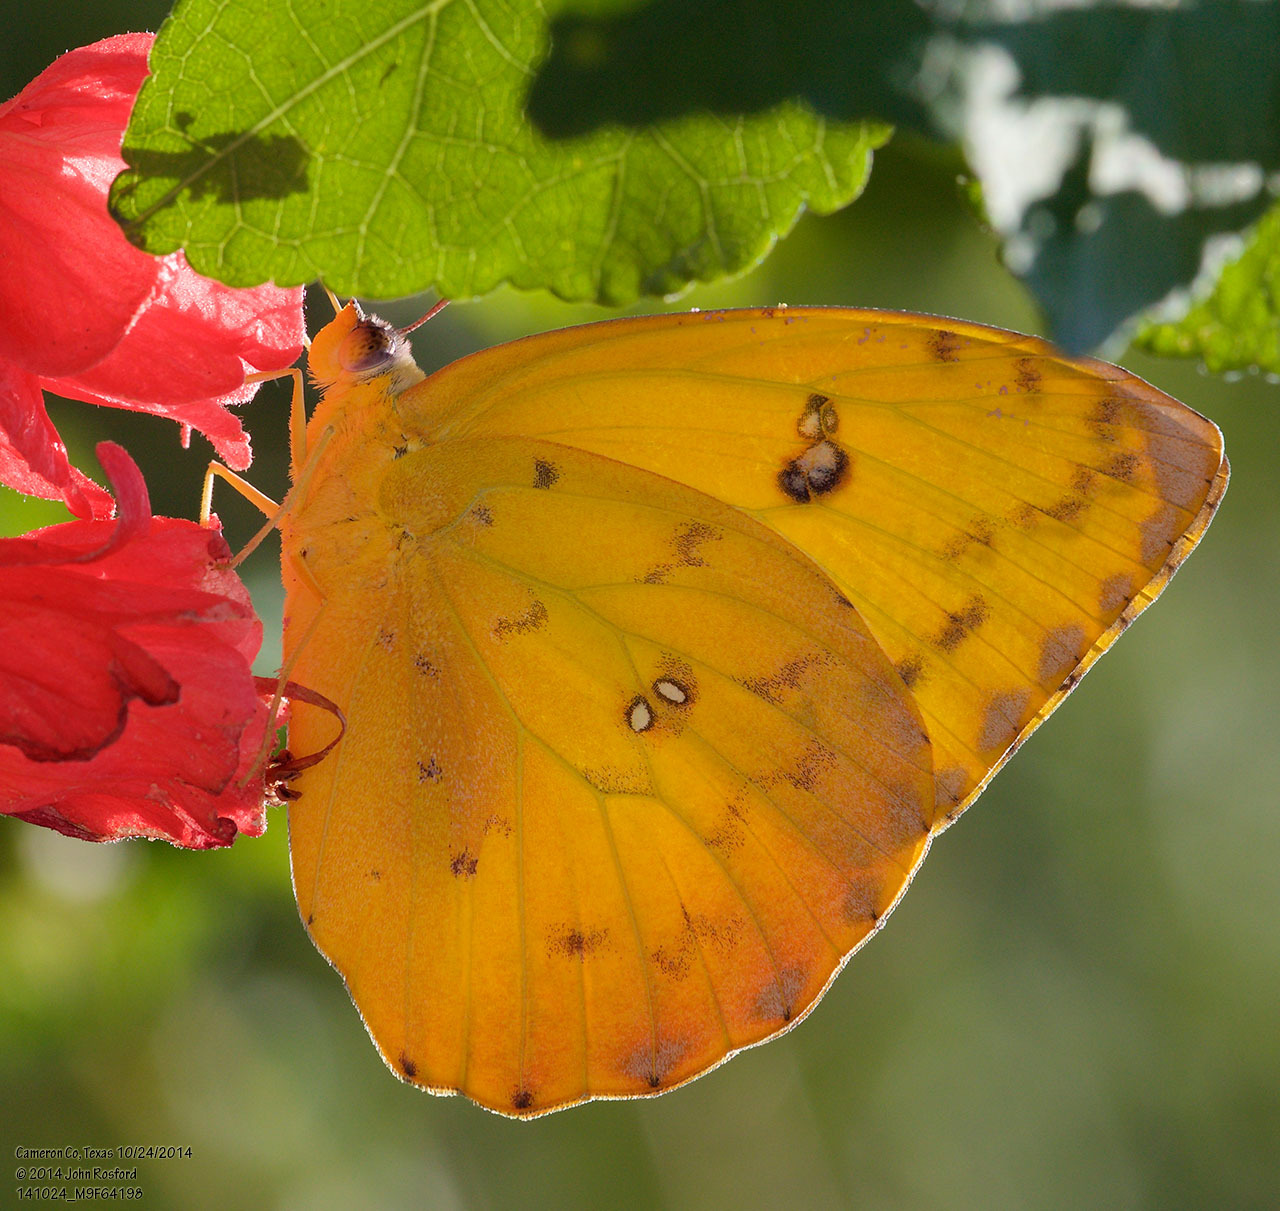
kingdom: Animalia
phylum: Arthropoda
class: Insecta
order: Lepidoptera
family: Pieridae
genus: Phoebis
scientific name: Phoebis philea
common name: Orange-barred giant sulphur
